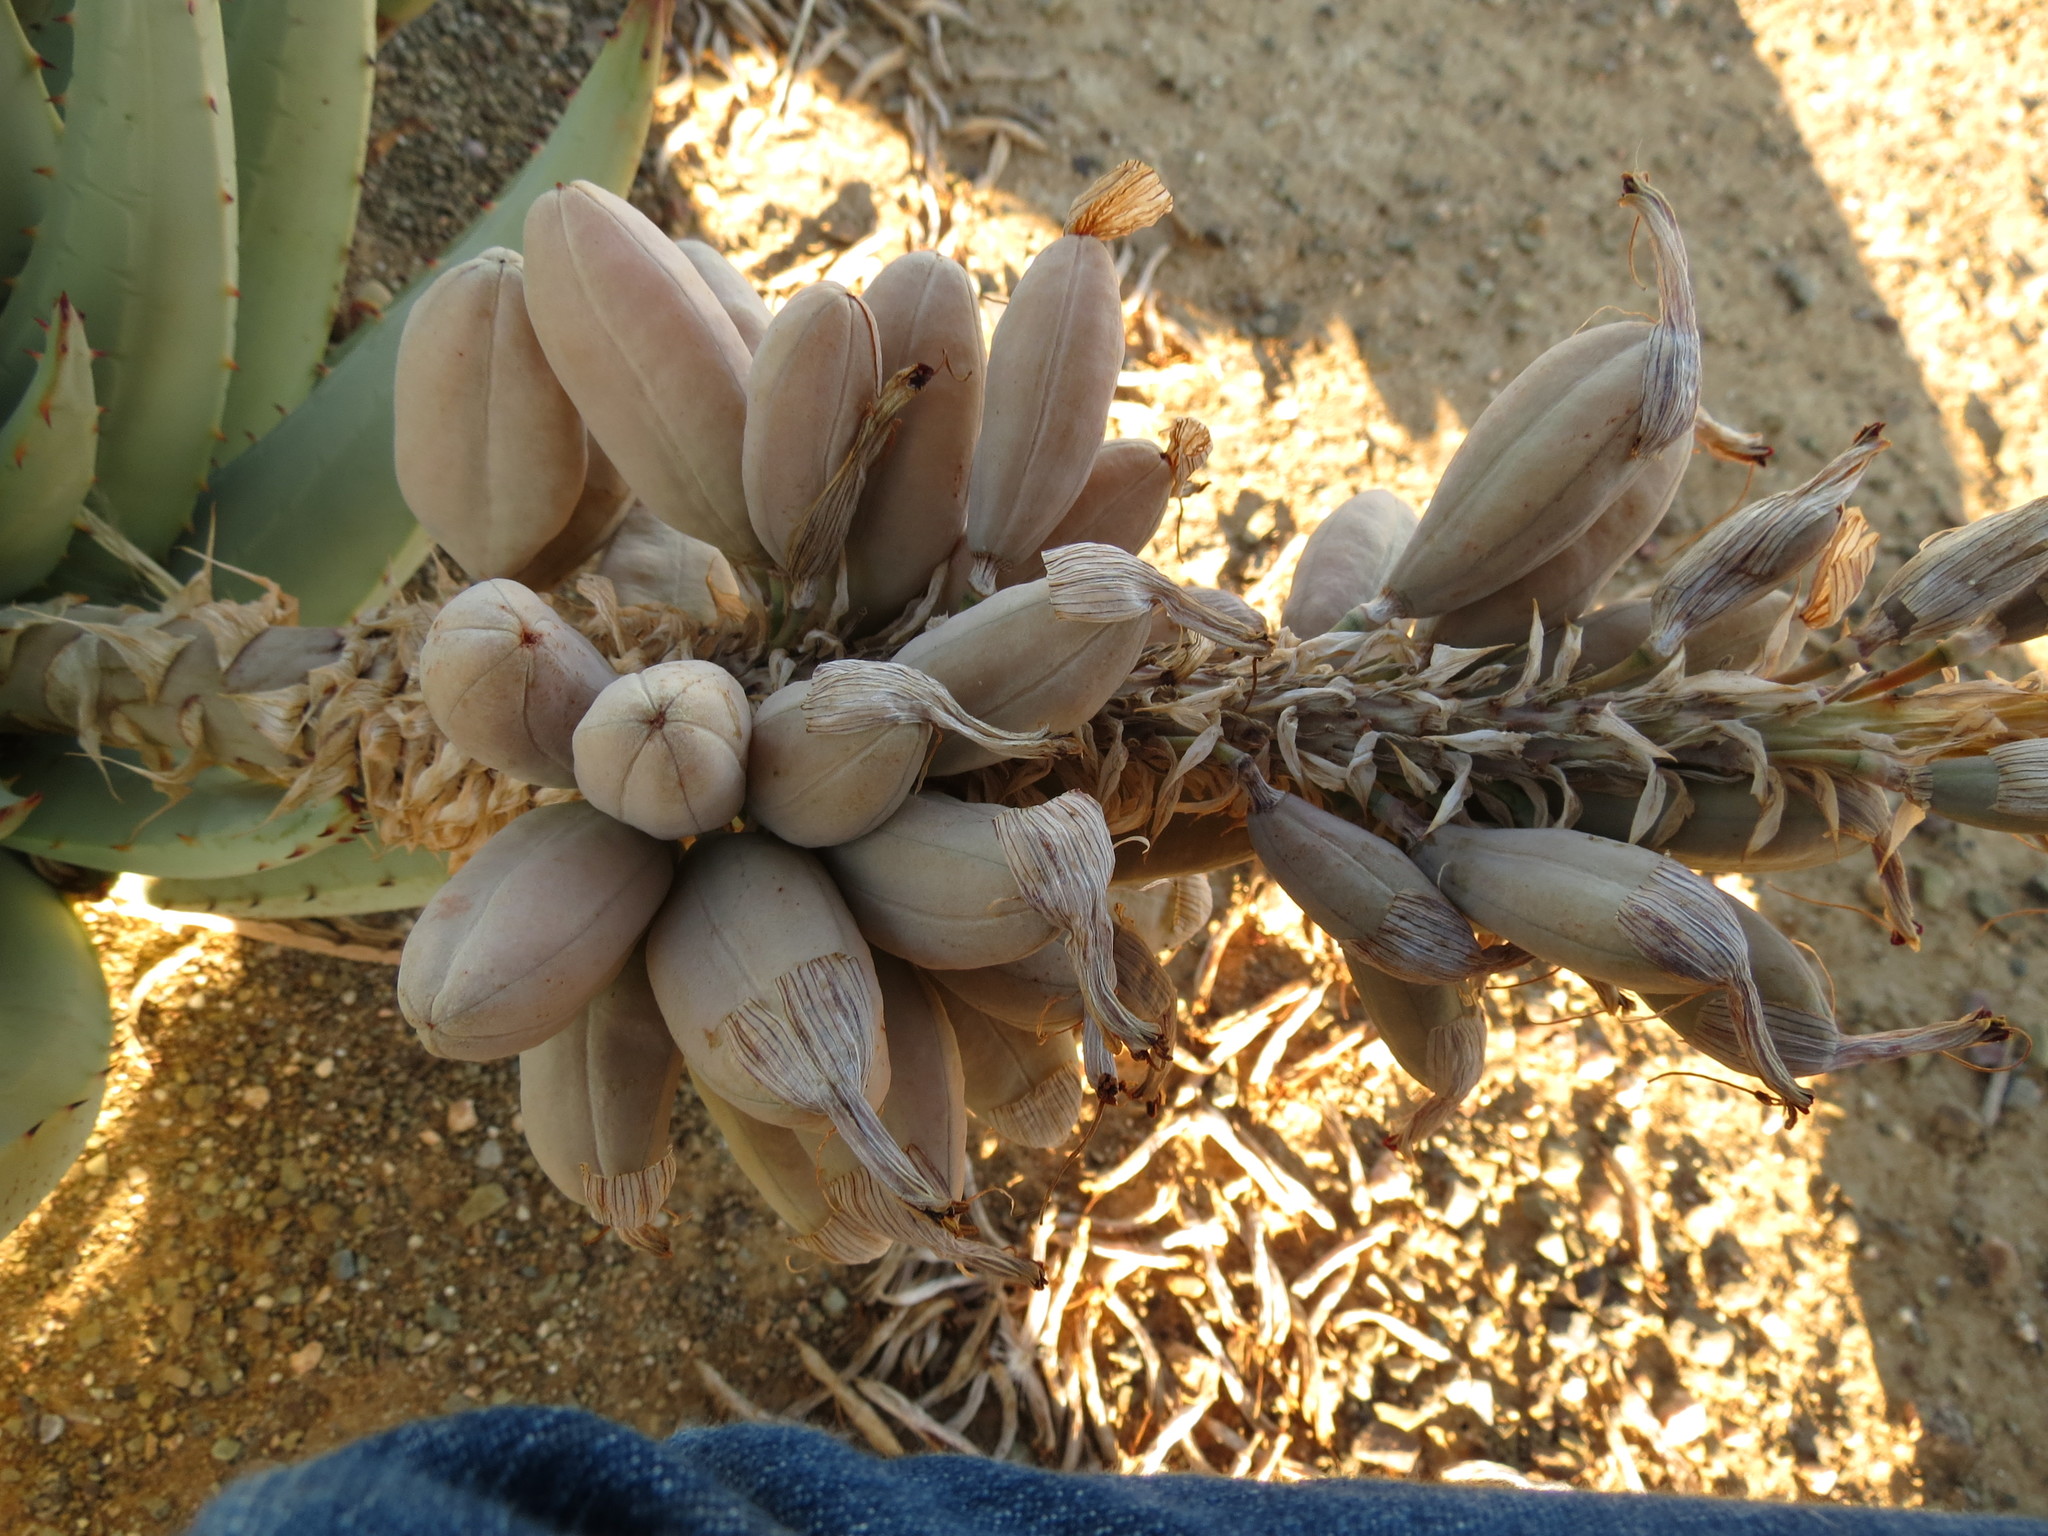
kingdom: Plantae
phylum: Tracheophyta
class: Liliopsida
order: Asparagales
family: Asphodelaceae
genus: Aloe
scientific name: Aloe claviflora
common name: Cannon aloe
